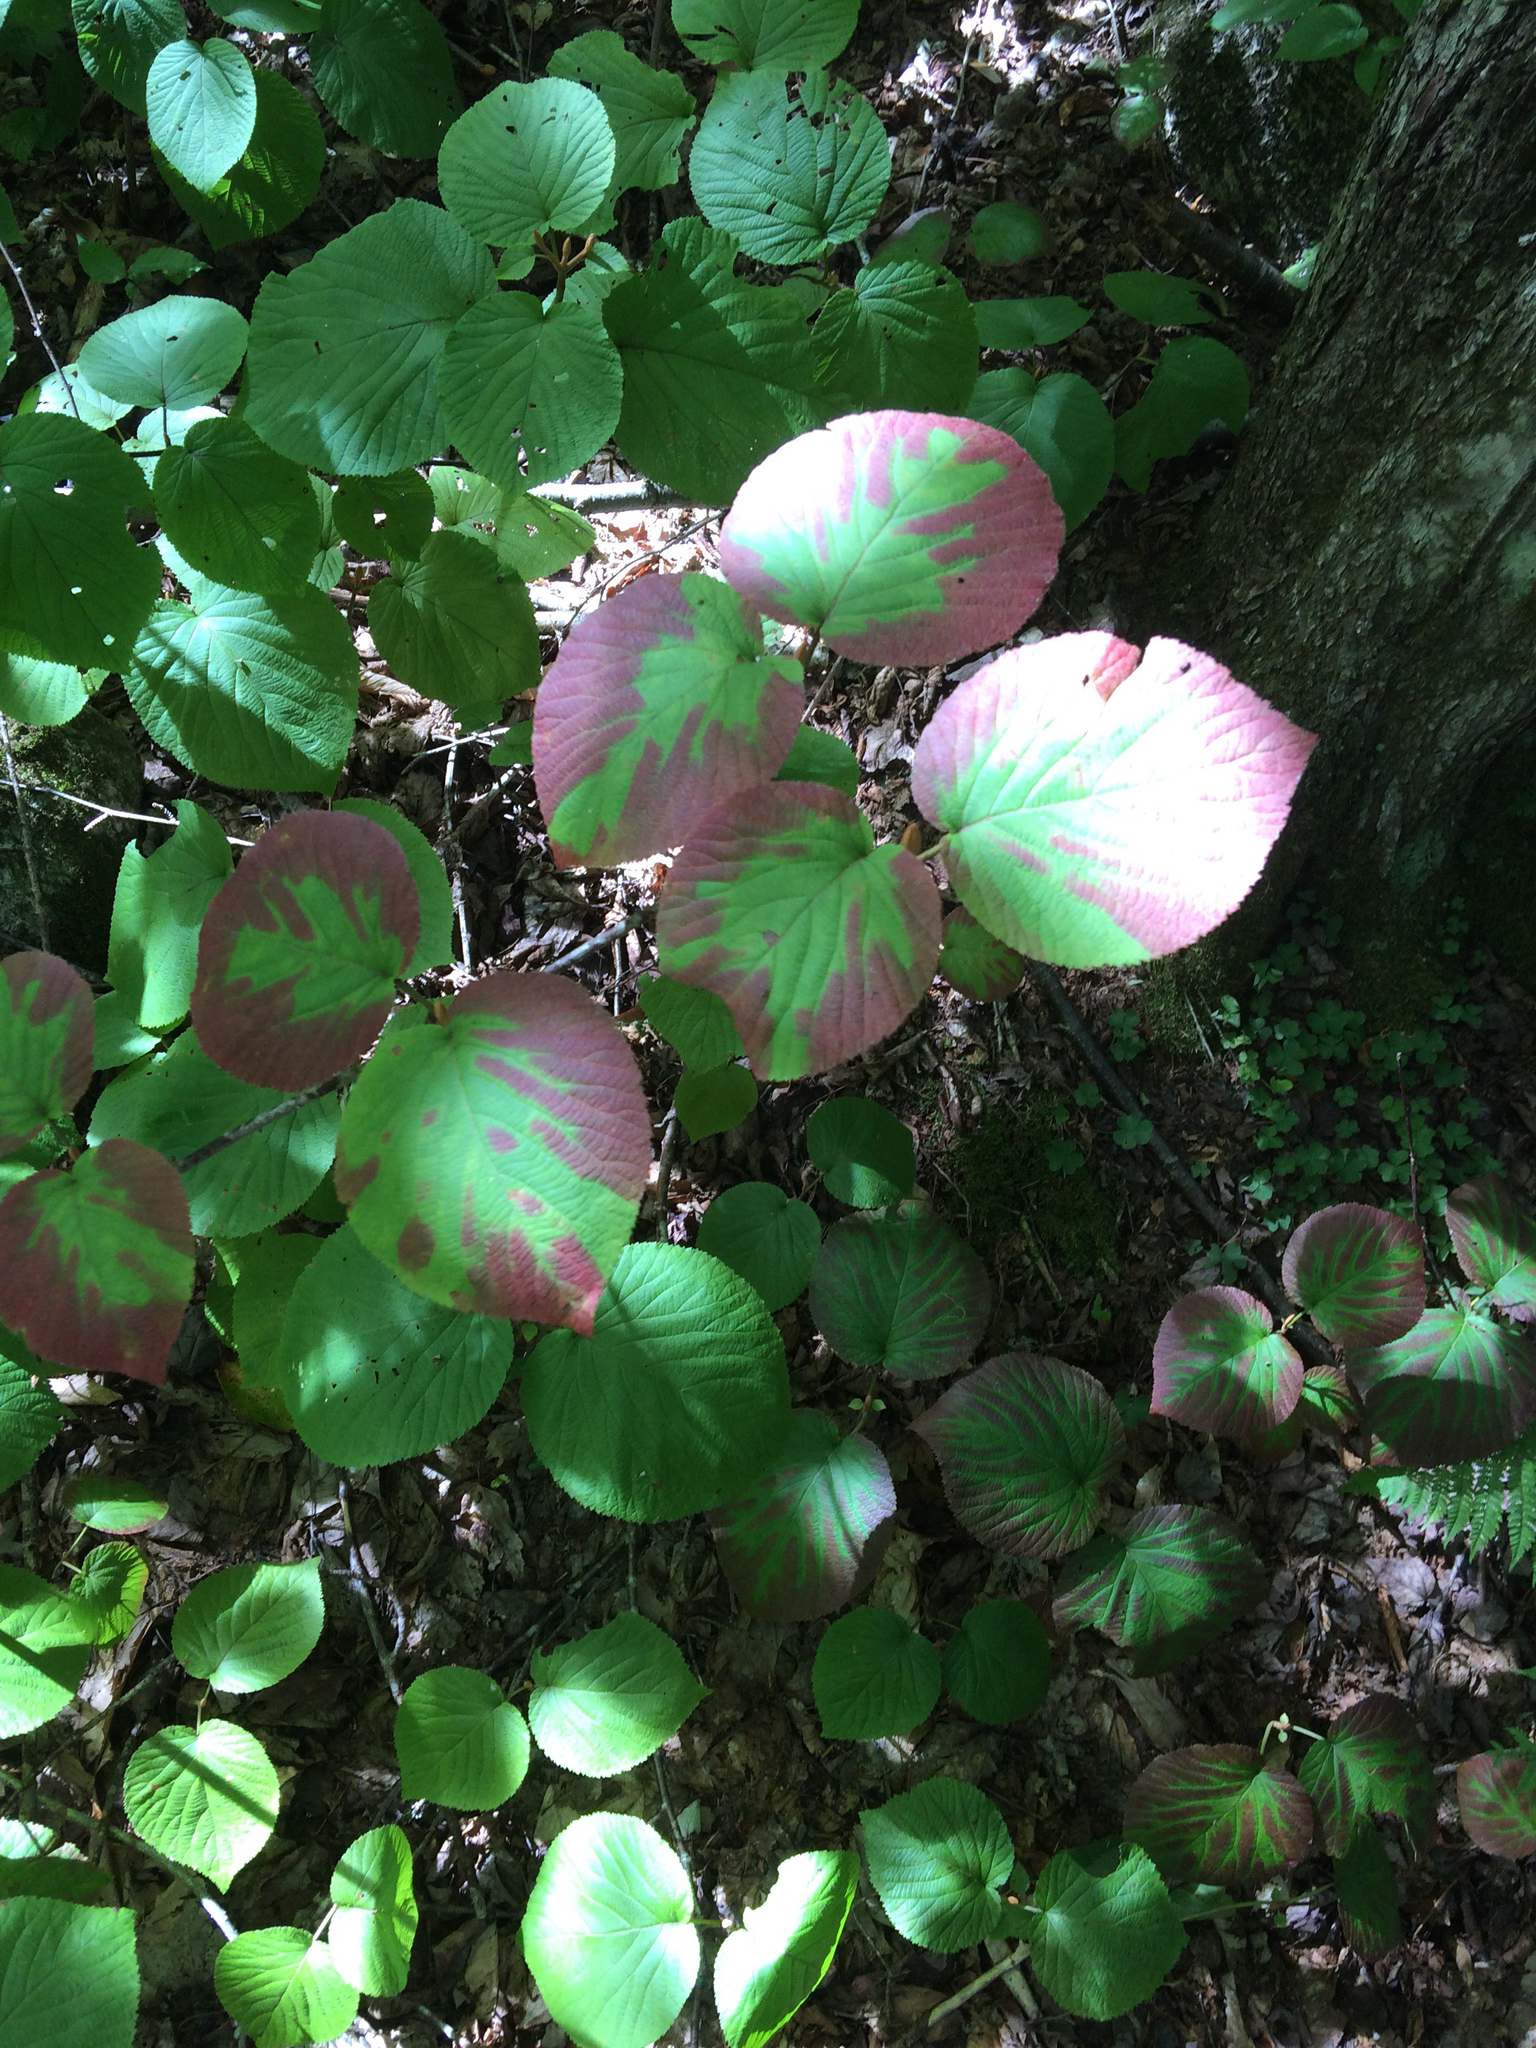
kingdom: Plantae
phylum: Tracheophyta
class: Magnoliopsida
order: Dipsacales
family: Viburnaceae
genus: Viburnum
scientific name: Viburnum lantanoides
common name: Hobblebush
